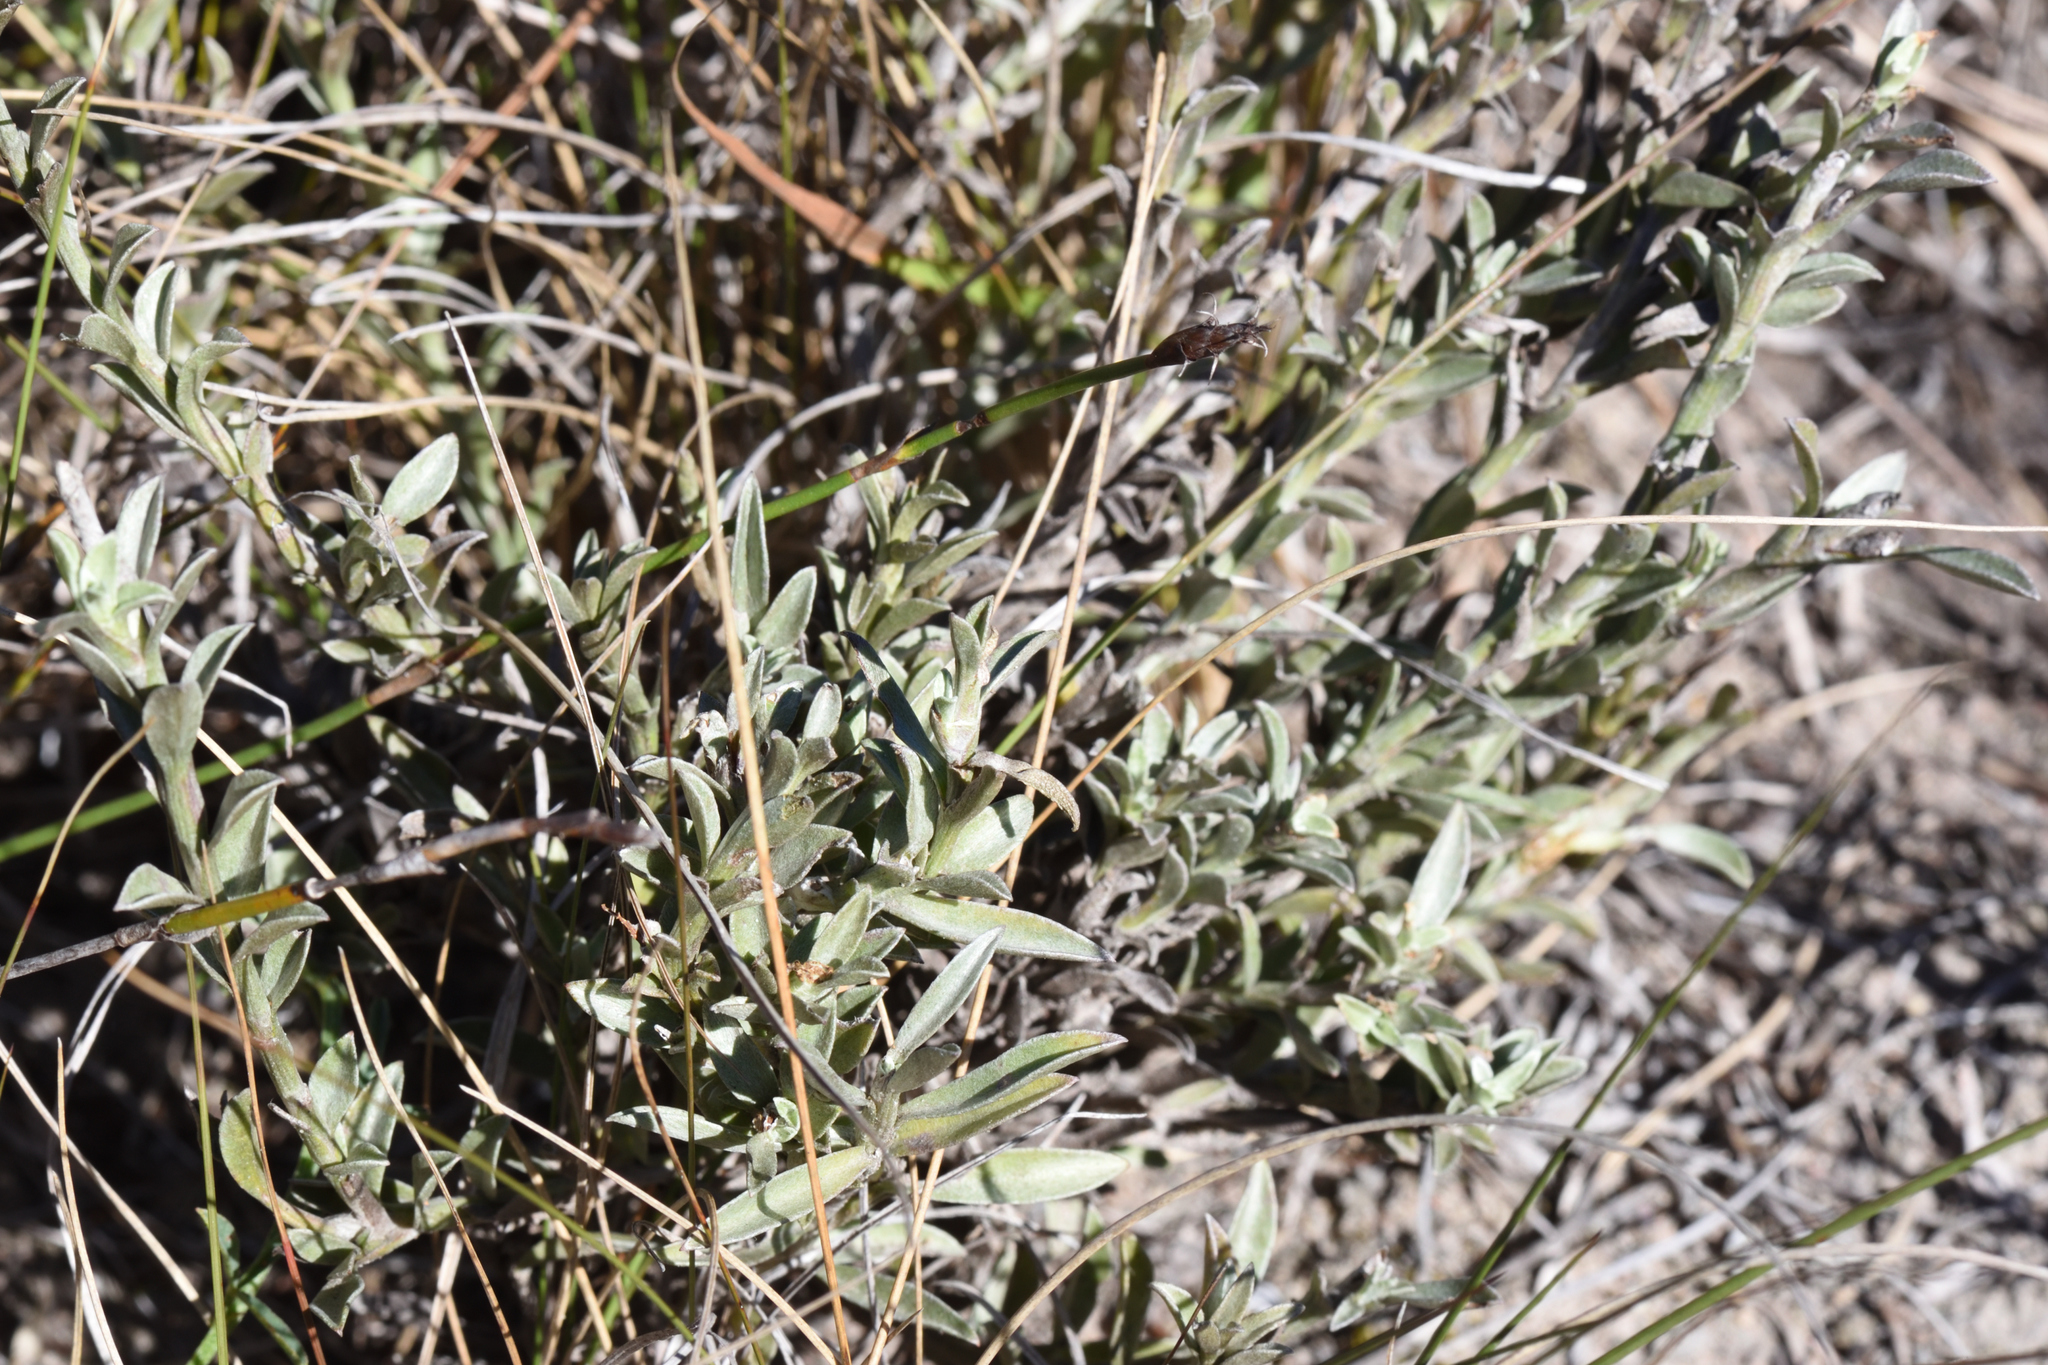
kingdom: Plantae
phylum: Tracheophyta
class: Magnoliopsida
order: Asterales
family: Asteraceae
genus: Achyranthemum
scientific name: Achyranthemum affine
